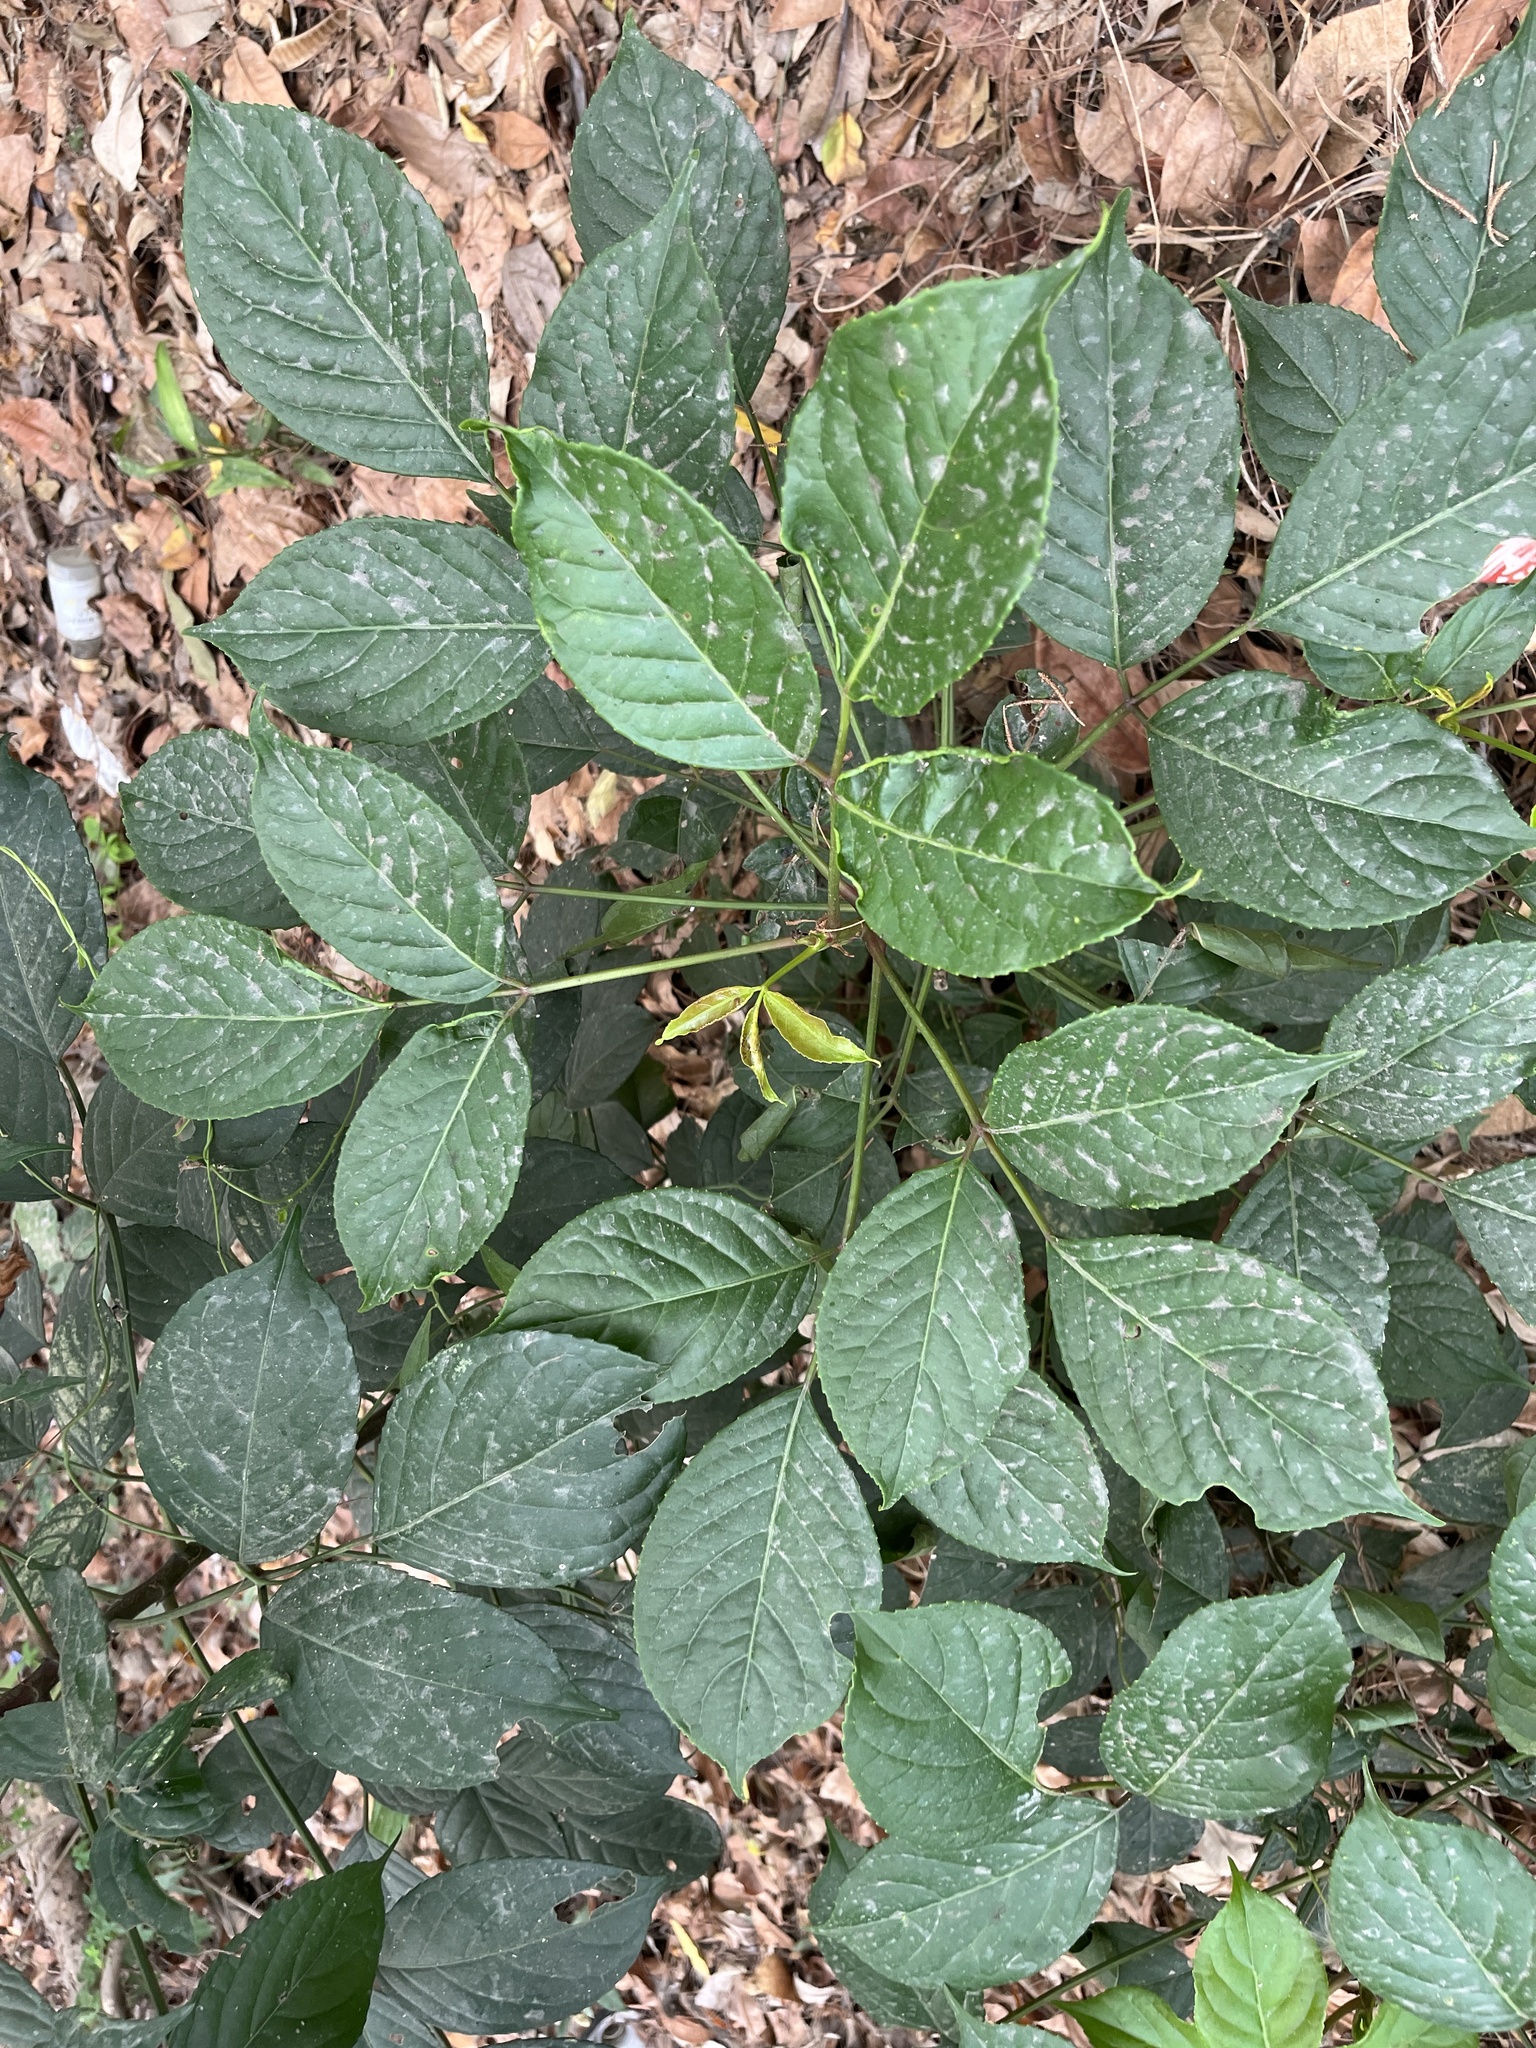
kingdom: Plantae
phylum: Tracheophyta
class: Magnoliopsida
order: Malpighiales
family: Phyllanthaceae
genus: Bischofia
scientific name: Bischofia javanica
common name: Javanese bishopwood
